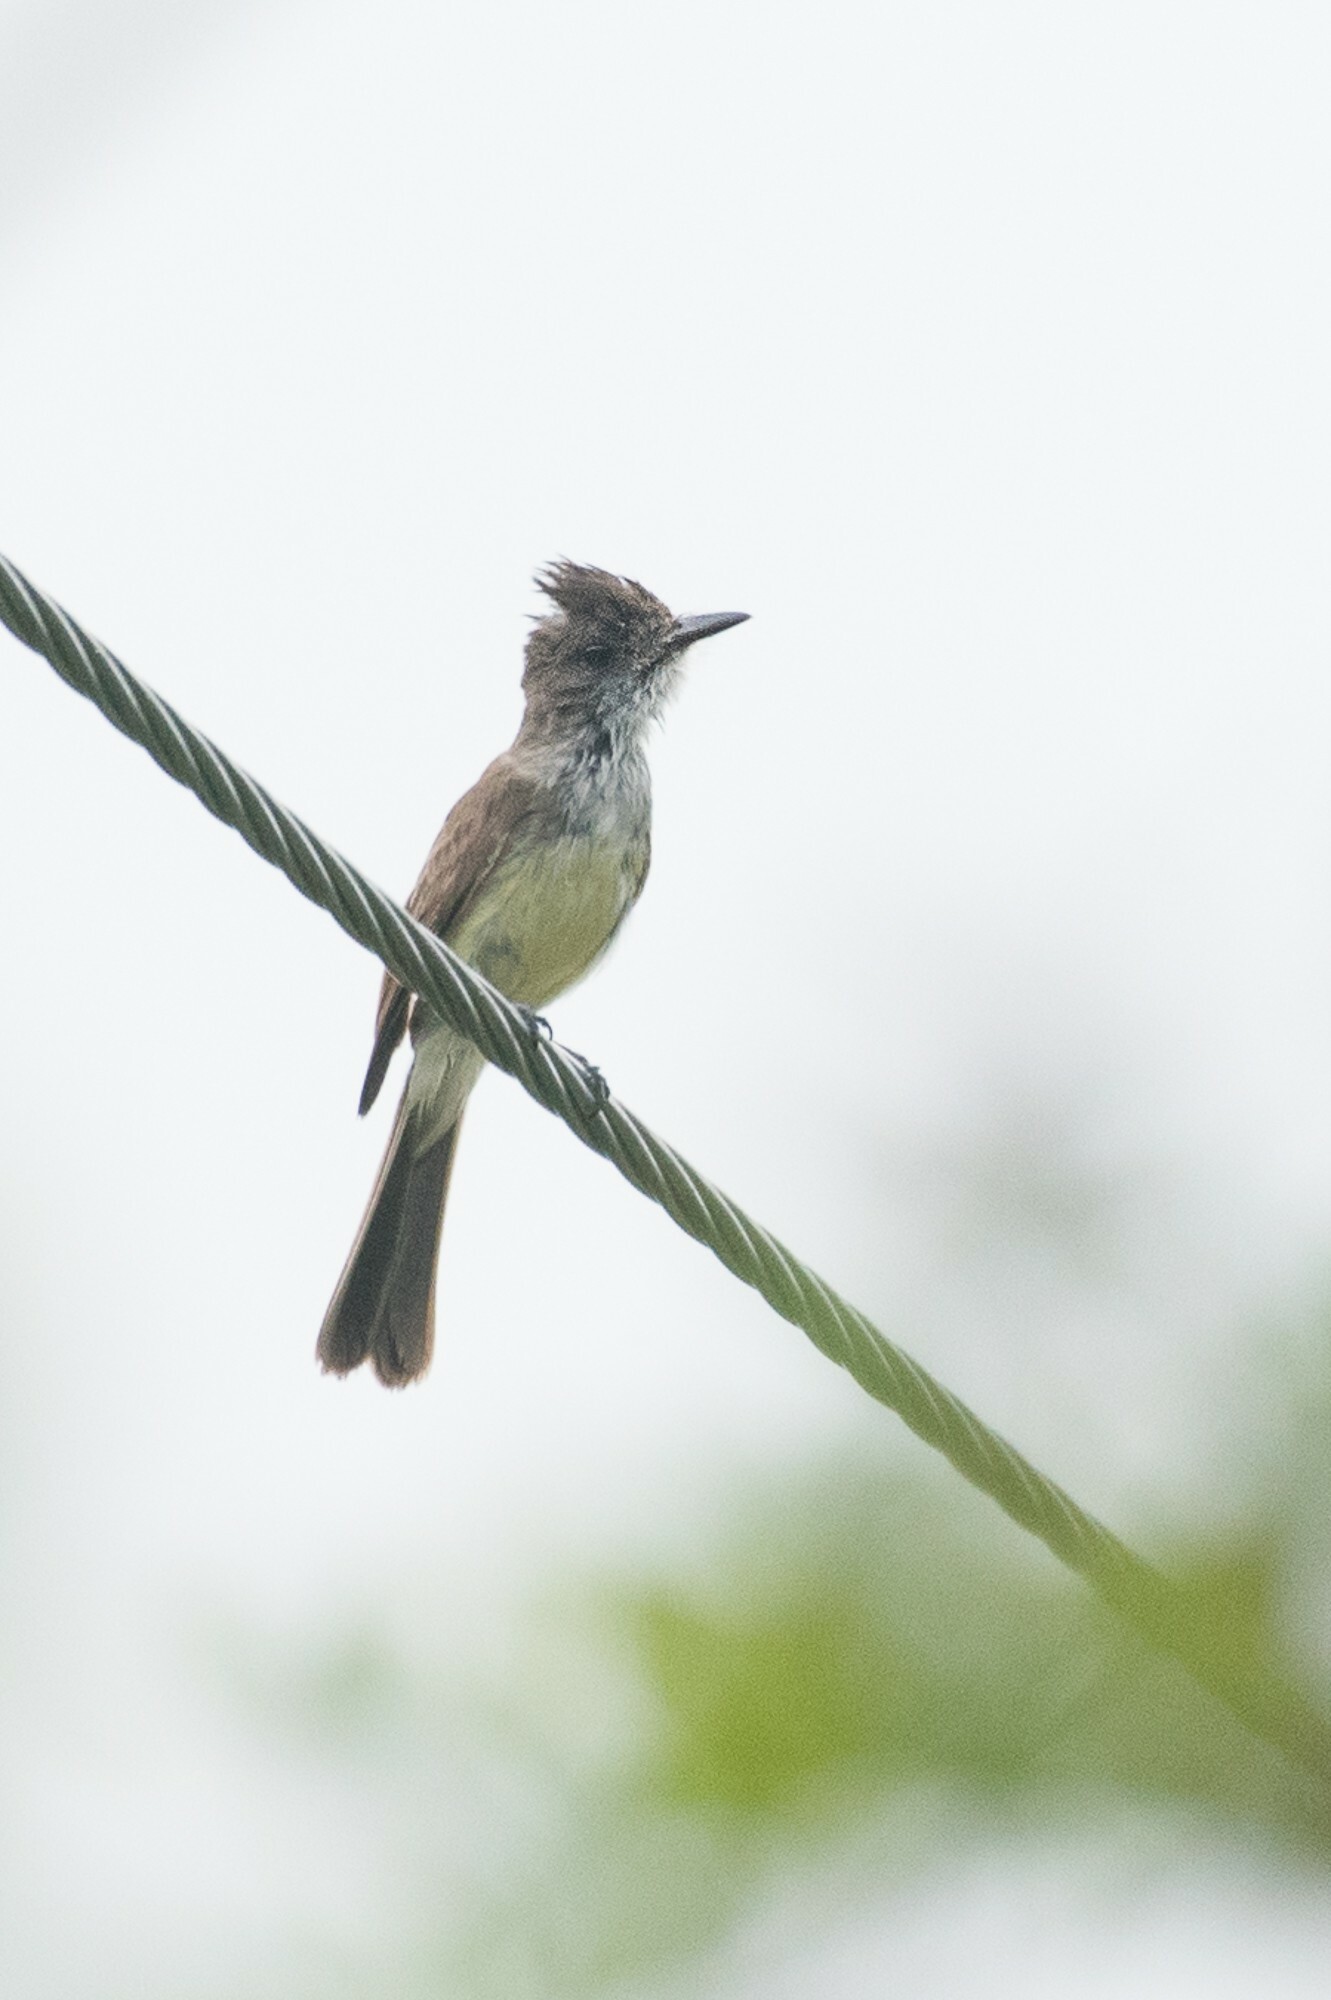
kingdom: Animalia
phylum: Chordata
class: Aves
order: Passeriformes
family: Tyrannidae
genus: Myiarchus
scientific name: Myiarchus tuberculifer
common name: Dusky-capped flycatcher
